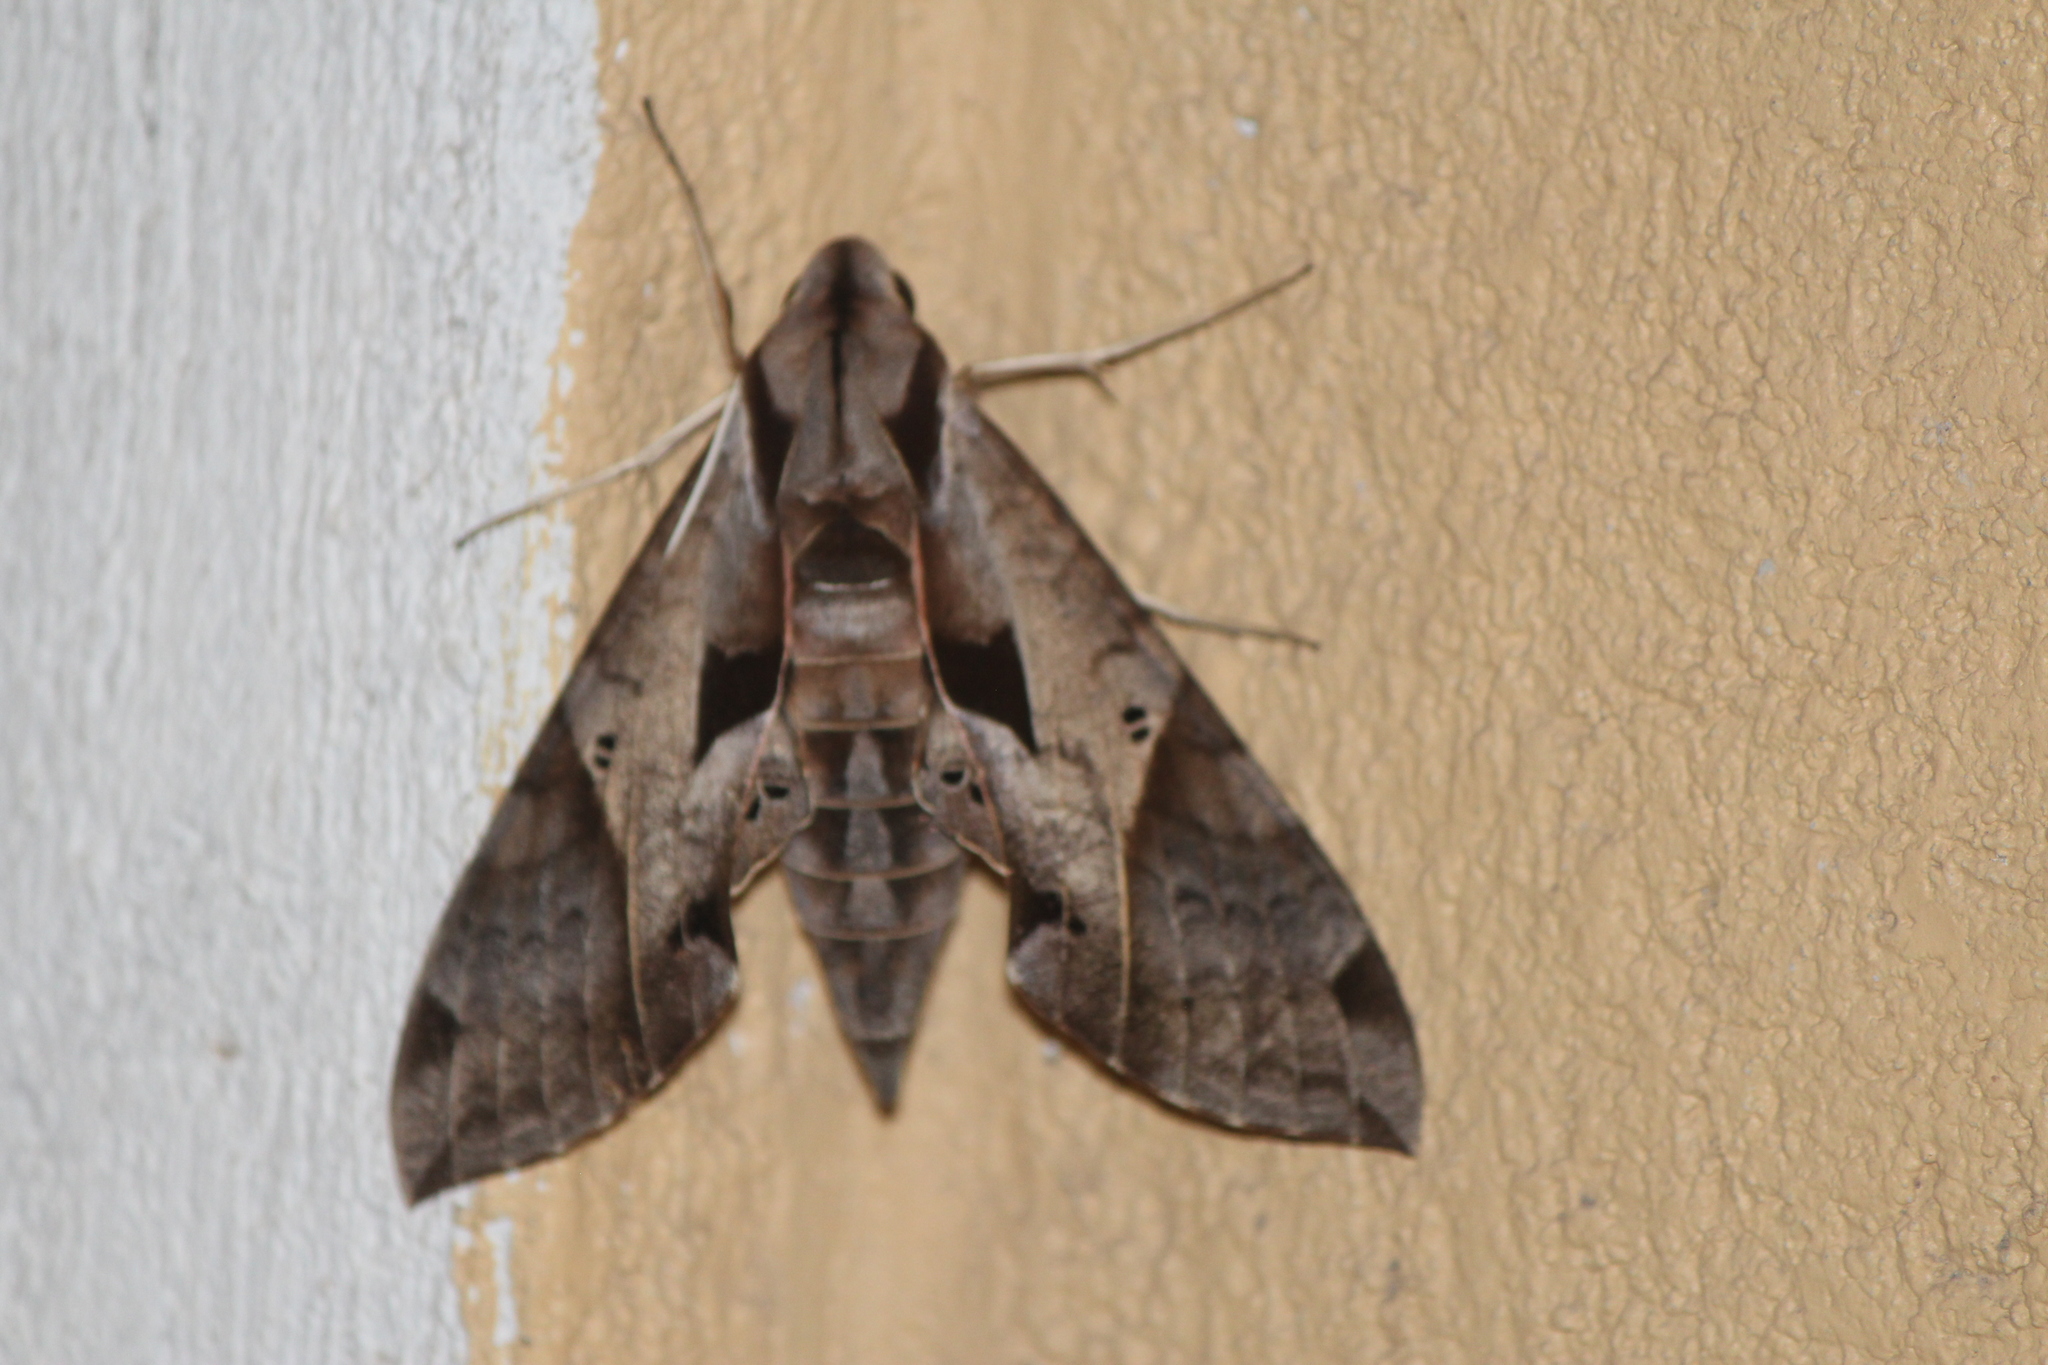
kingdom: Animalia
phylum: Arthropoda
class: Insecta
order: Lepidoptera
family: Sphingidae
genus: Eumorpha
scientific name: Eumorpha satellitia
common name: Satellite sphinx
